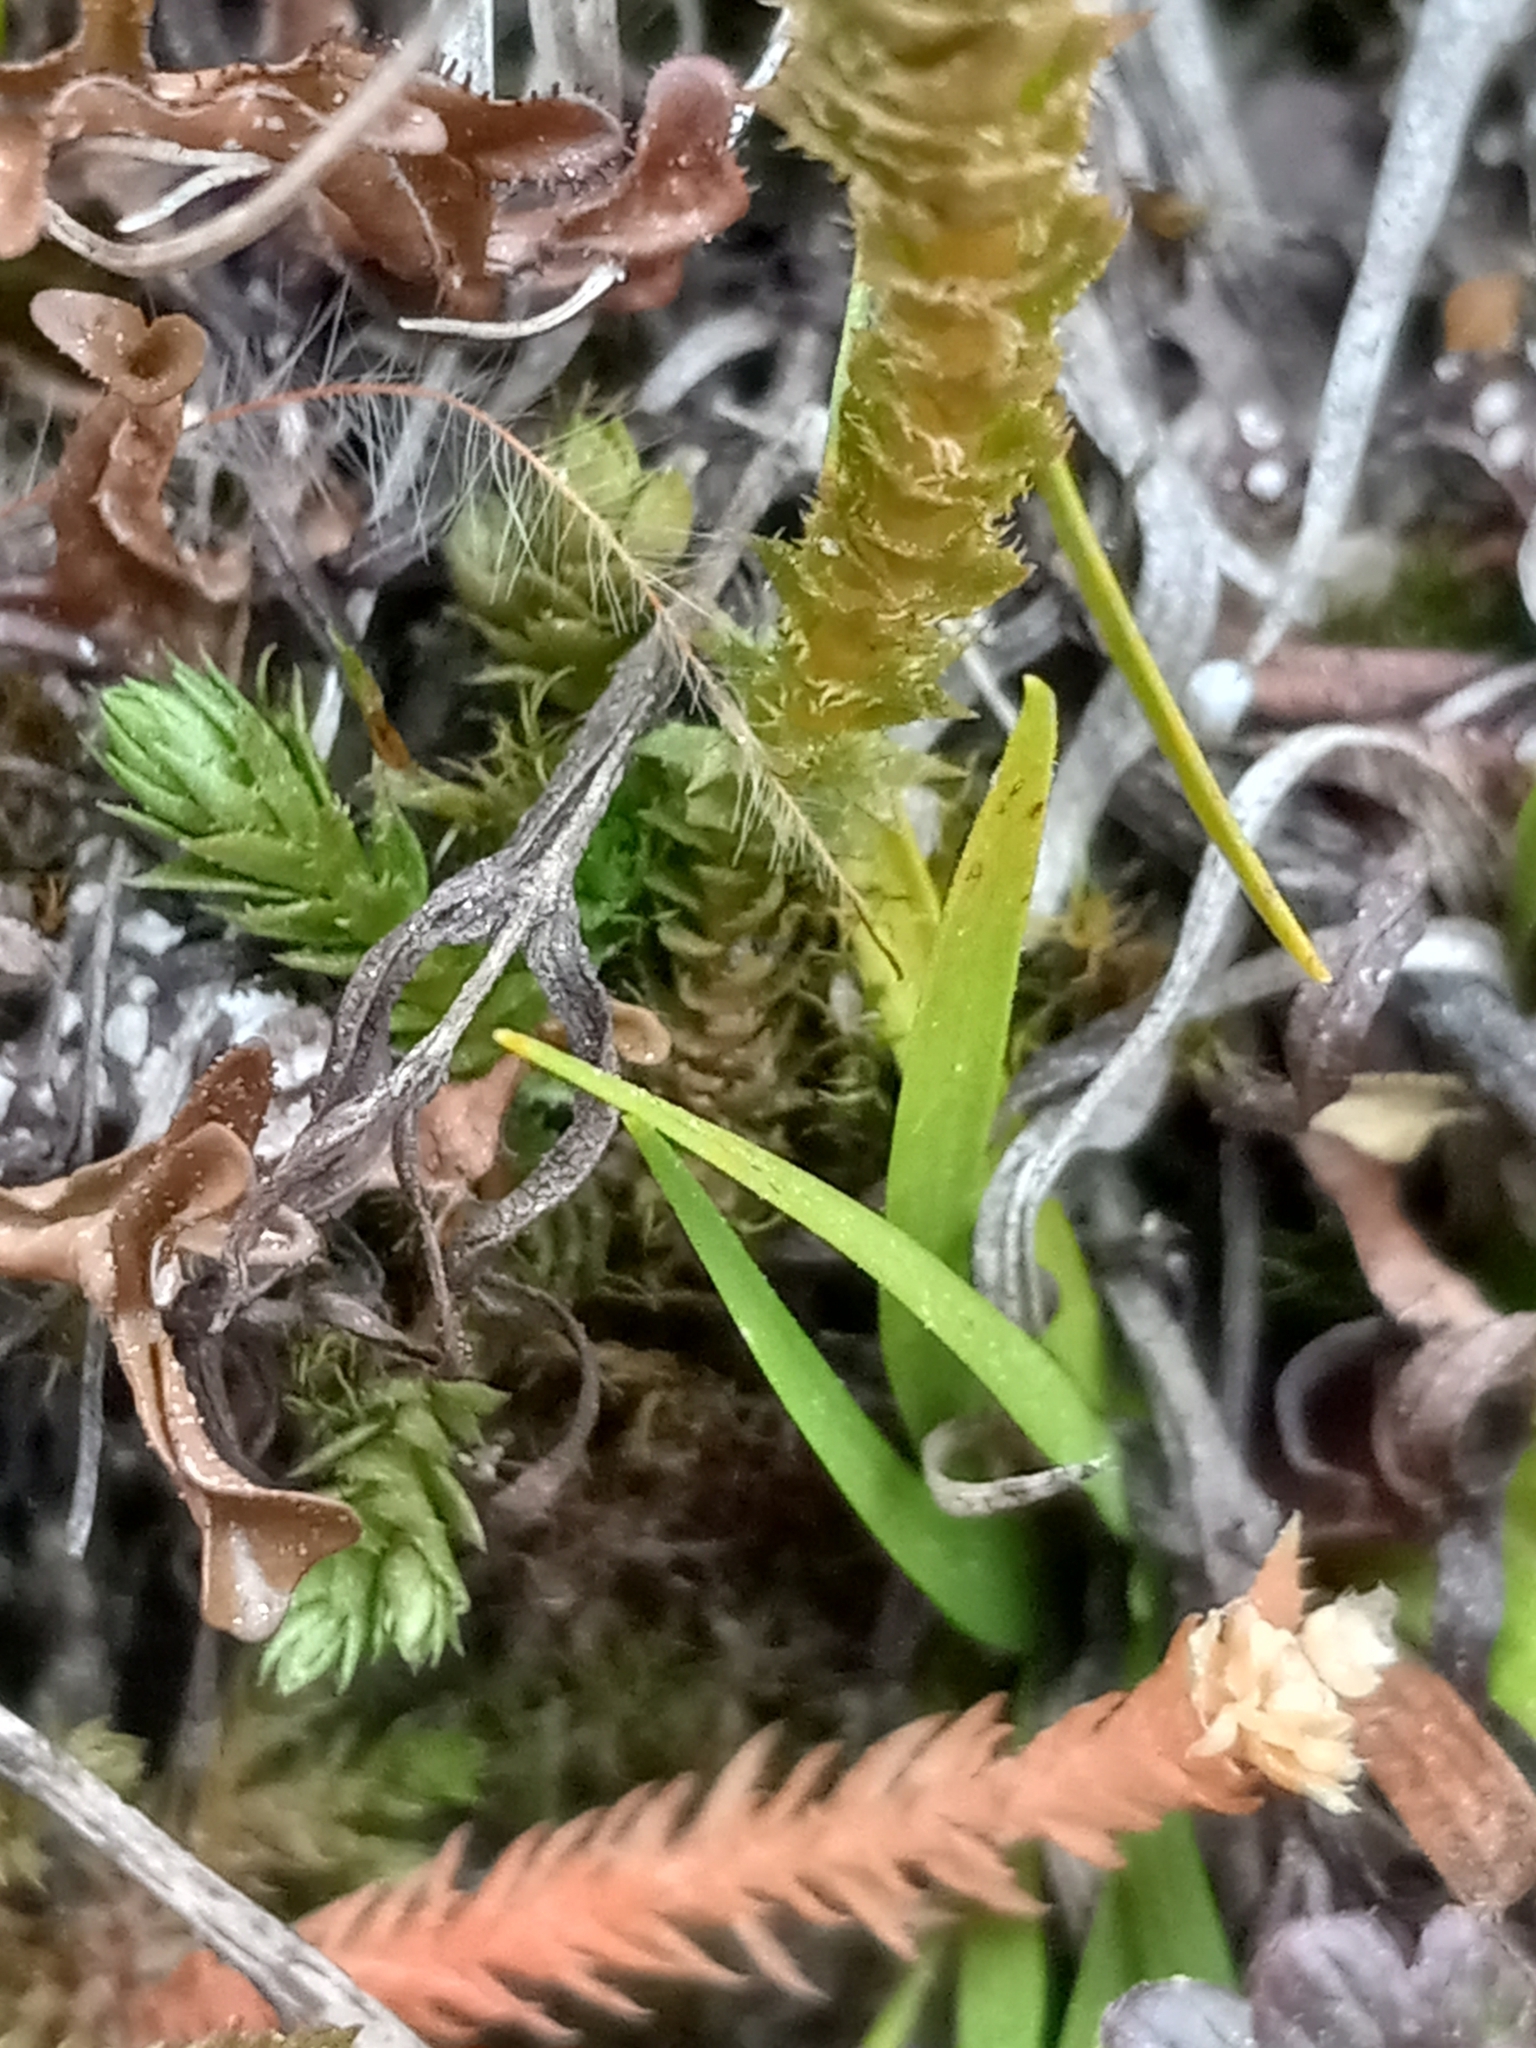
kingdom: Plantae
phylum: Tracheophyta
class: Lycopodiopsida
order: Selaginellales
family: Selaginellaceae
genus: Selaginella
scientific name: Selaginella selaginoides
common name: Prickly mountain-moss
